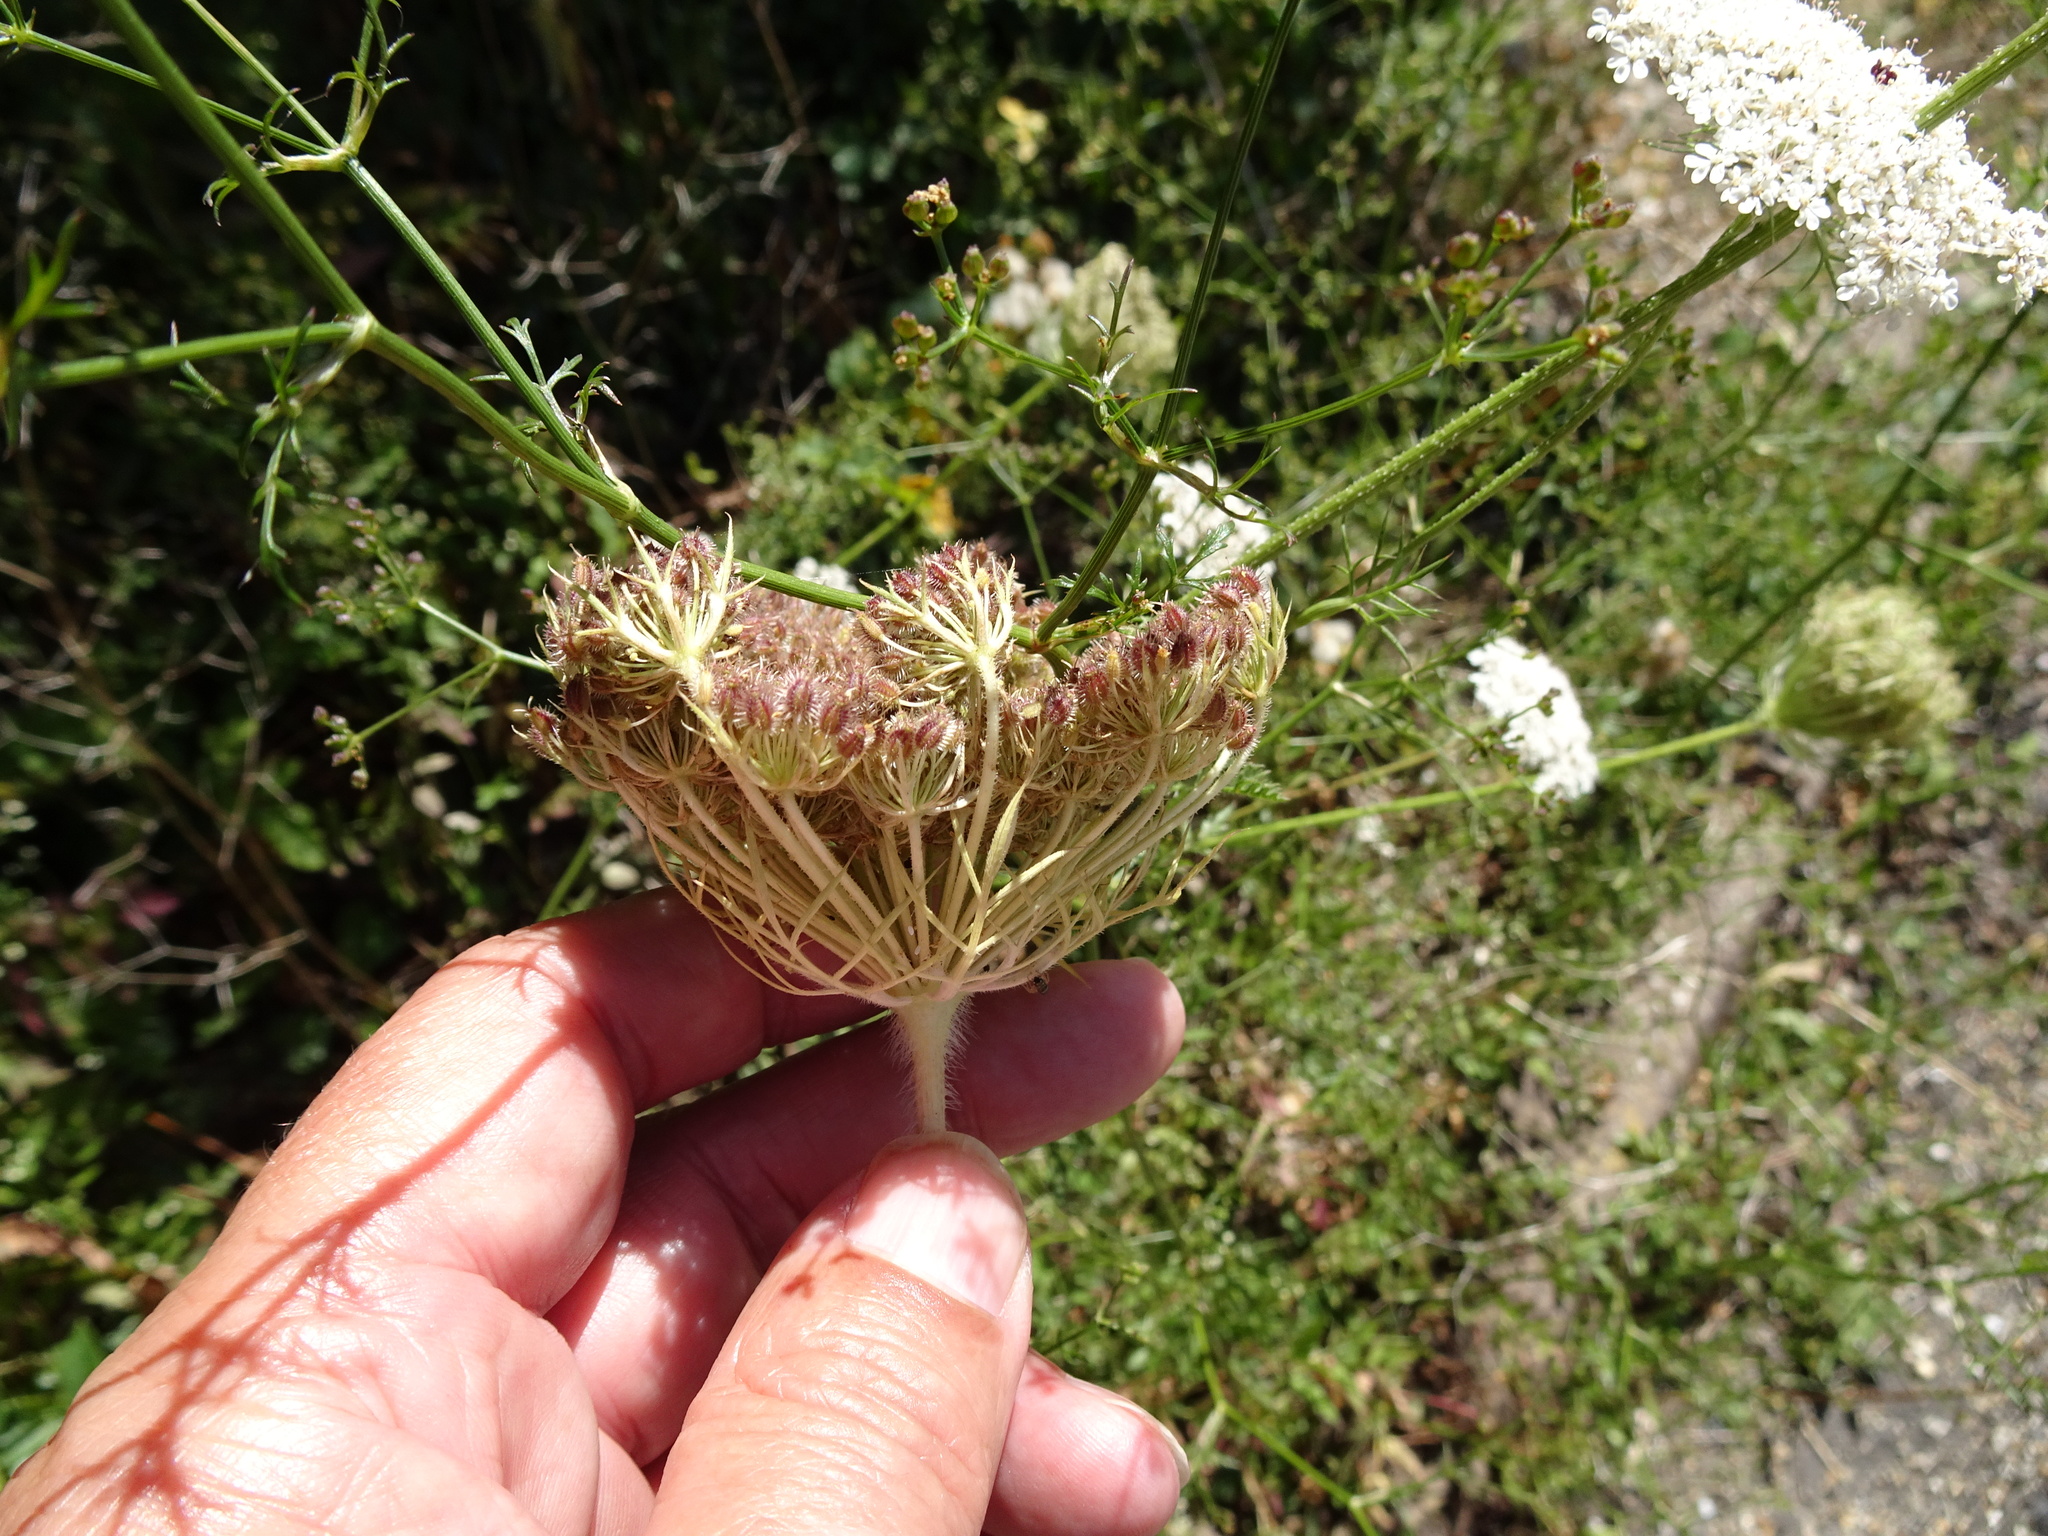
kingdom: Plantae
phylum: Tracheophyta
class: Magnoliopsida
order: Apiales
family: Apiaceae
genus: Daucus
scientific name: Daucus carota
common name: Wild carrot
